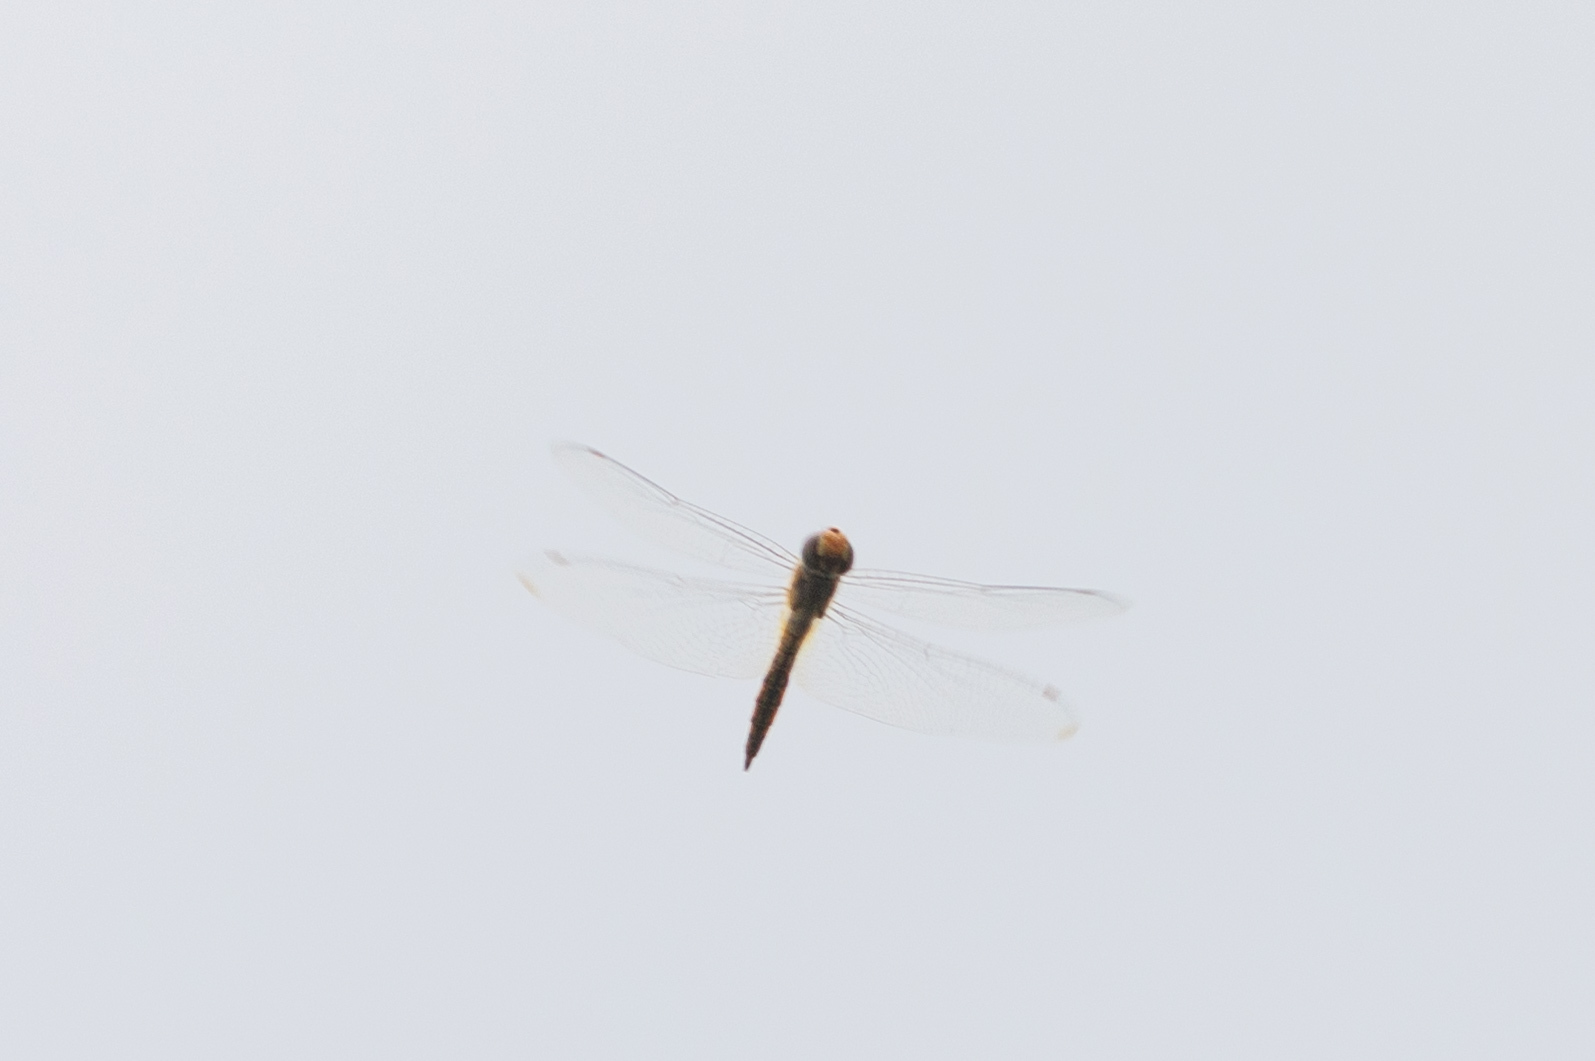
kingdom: Animalia
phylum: Arthropoda
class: Insecta
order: Odonata
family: Libellulidae
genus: Pantala
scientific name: Pantala flavescens
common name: Wandering glider
